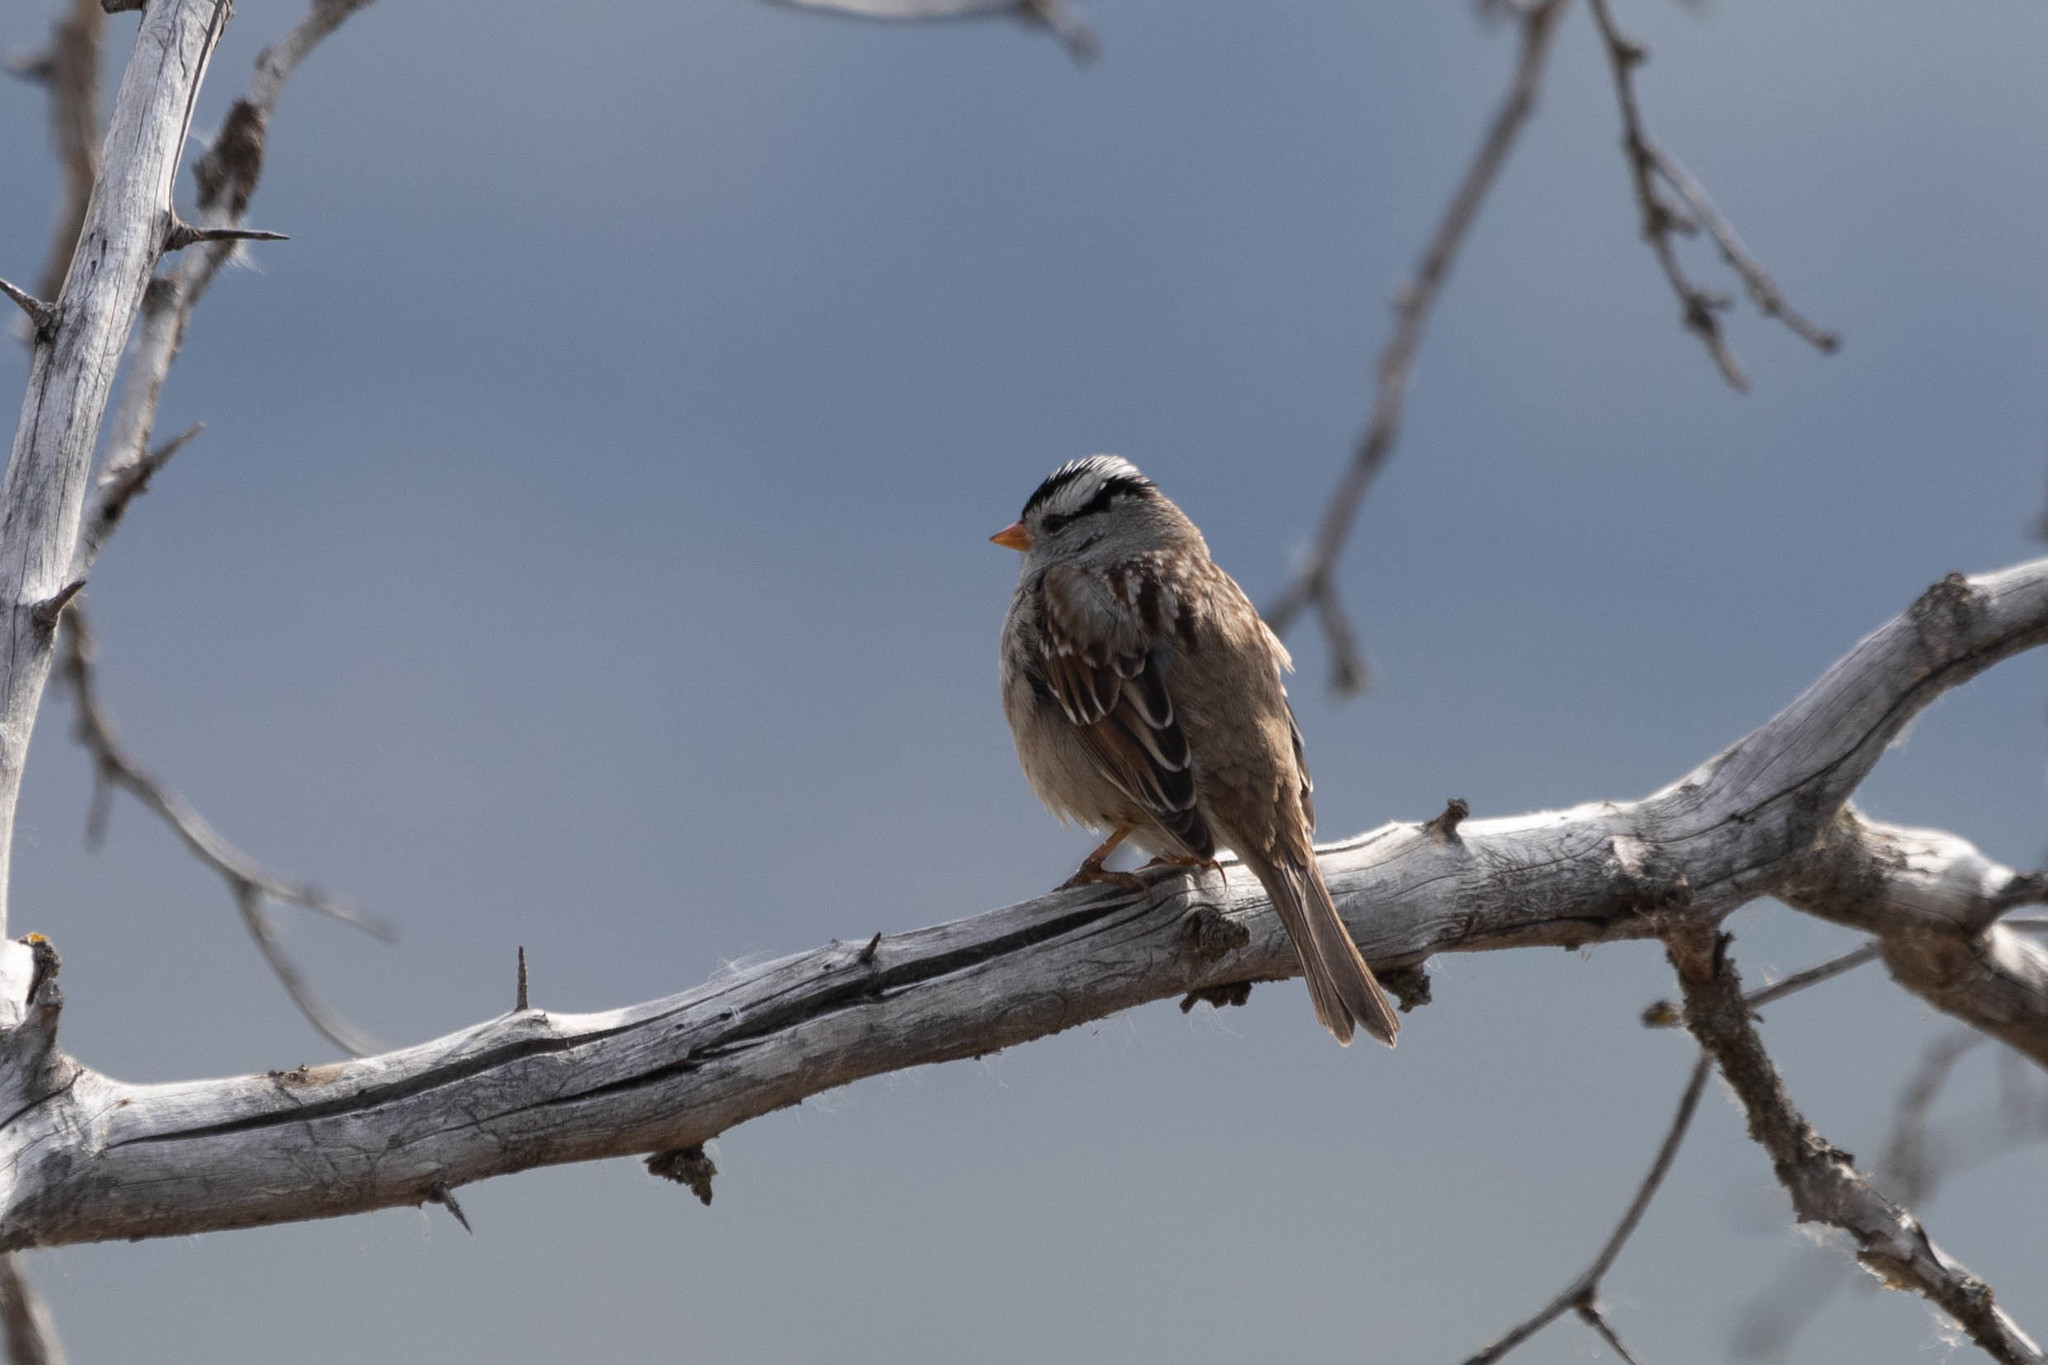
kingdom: Animalia
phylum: Chordata
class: Aves
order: Passeriformes
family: Passerellidae
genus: Zonotrichia
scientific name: Zonotrichia leucophrys
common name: White-crowned sparrow
